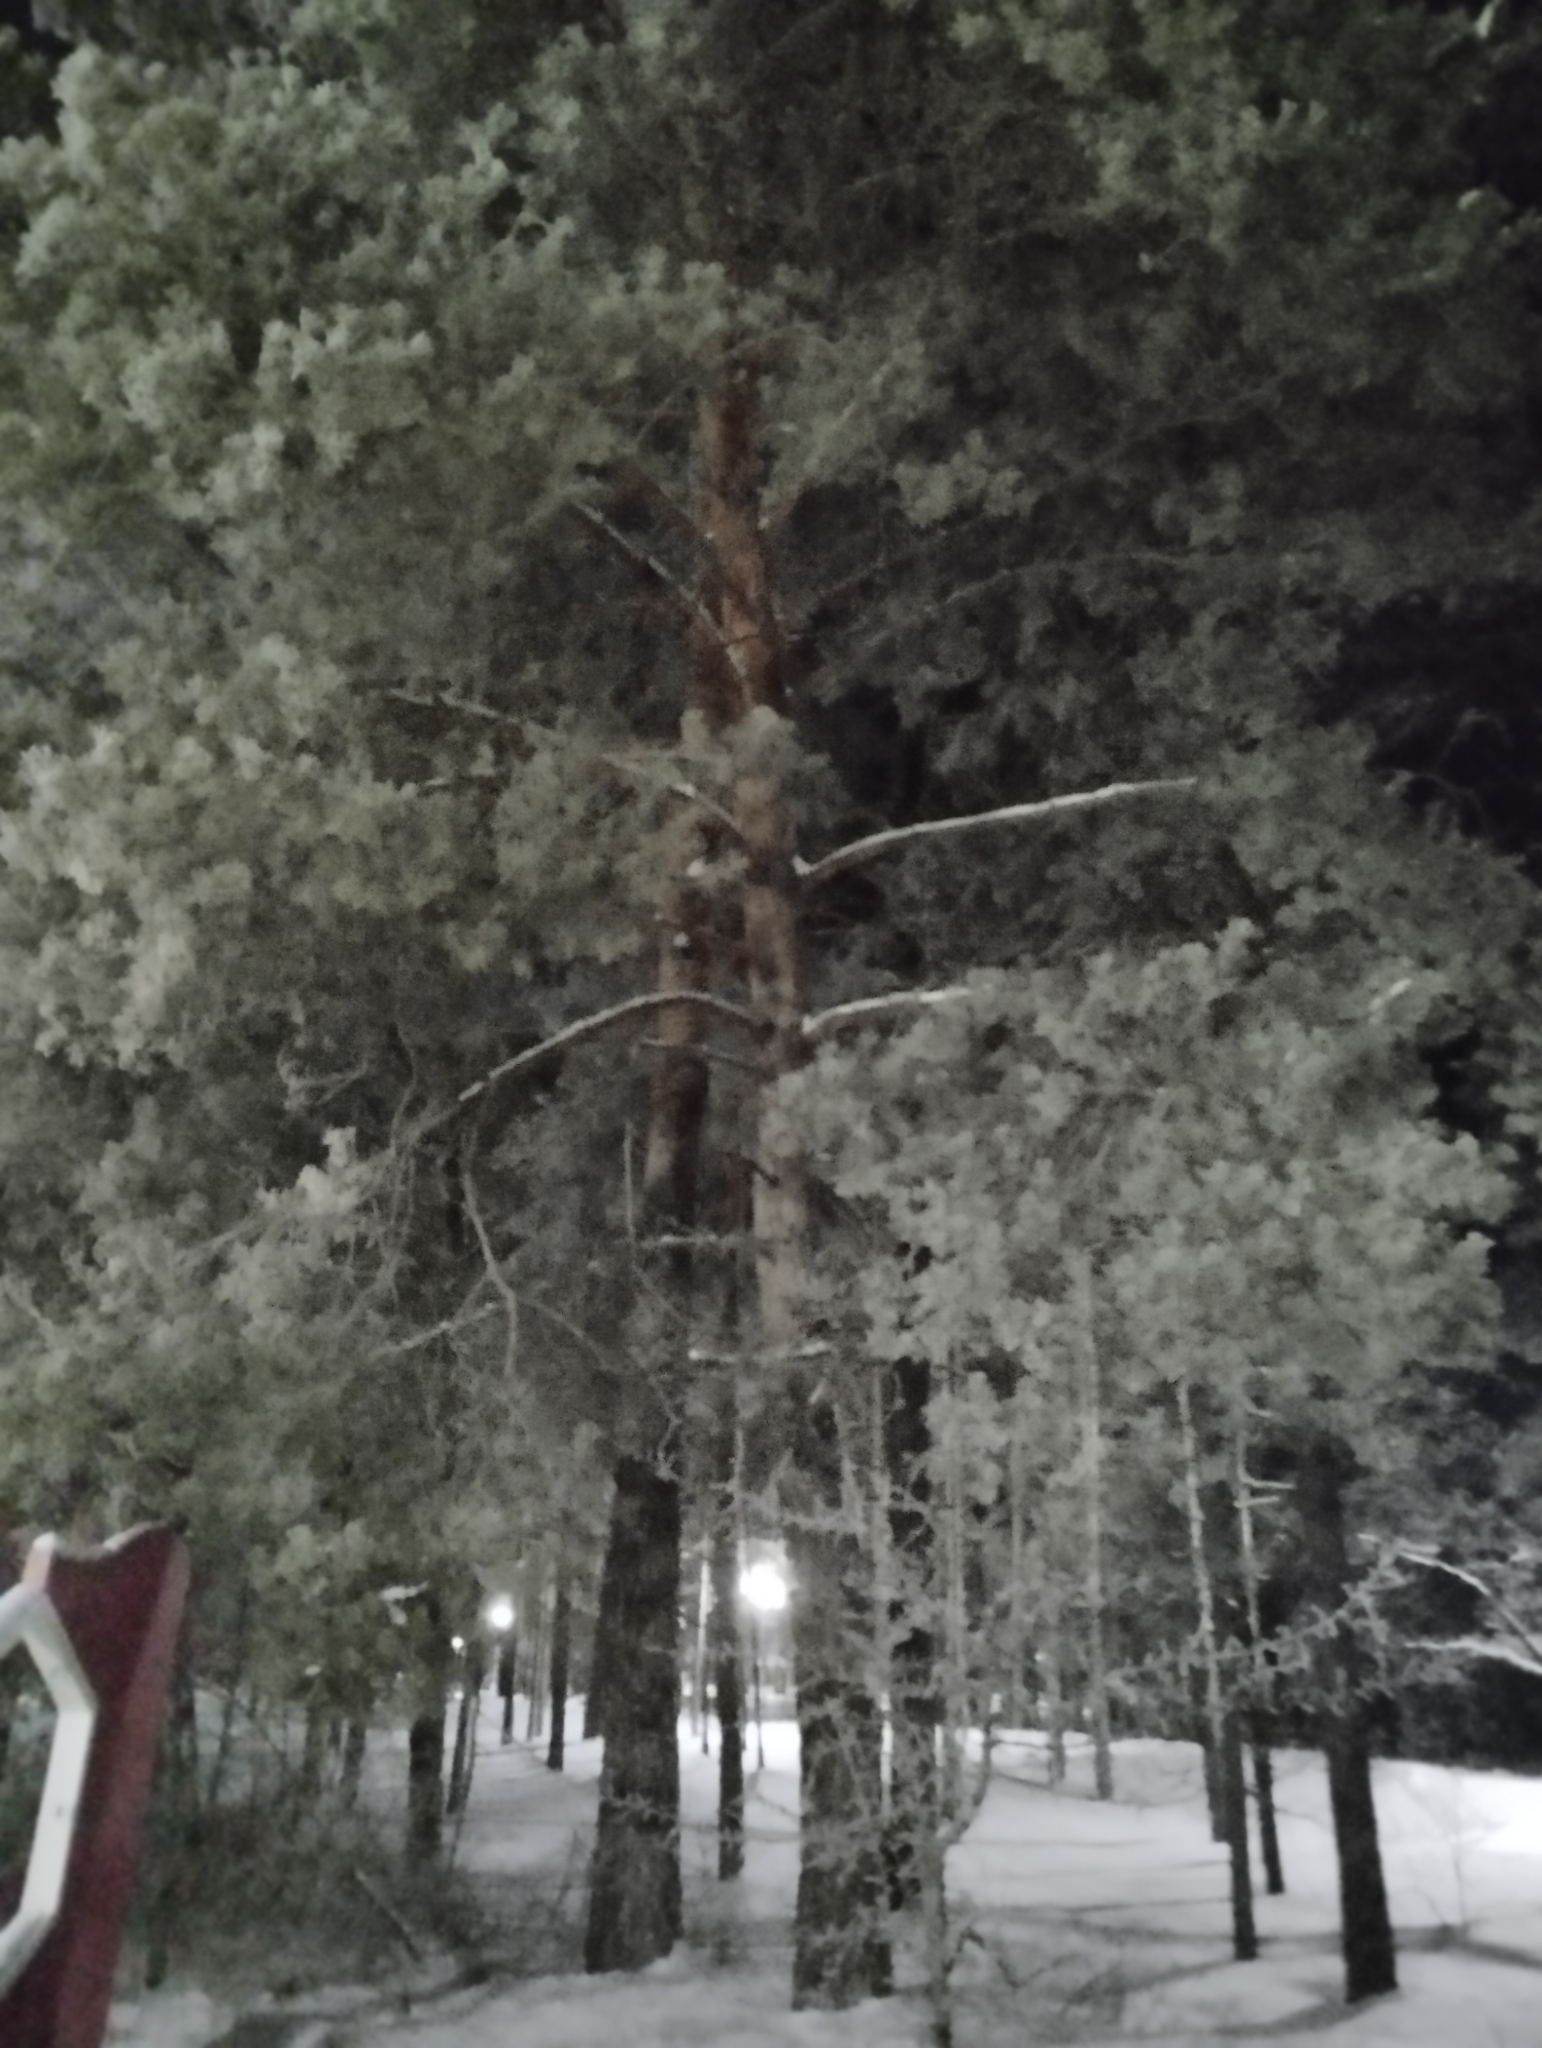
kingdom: Plantae
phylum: Tracheophyta
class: Pinopsida
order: Pinales
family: Pinaceae
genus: Pinus
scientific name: Pinus sylvestris
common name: Scots pine
